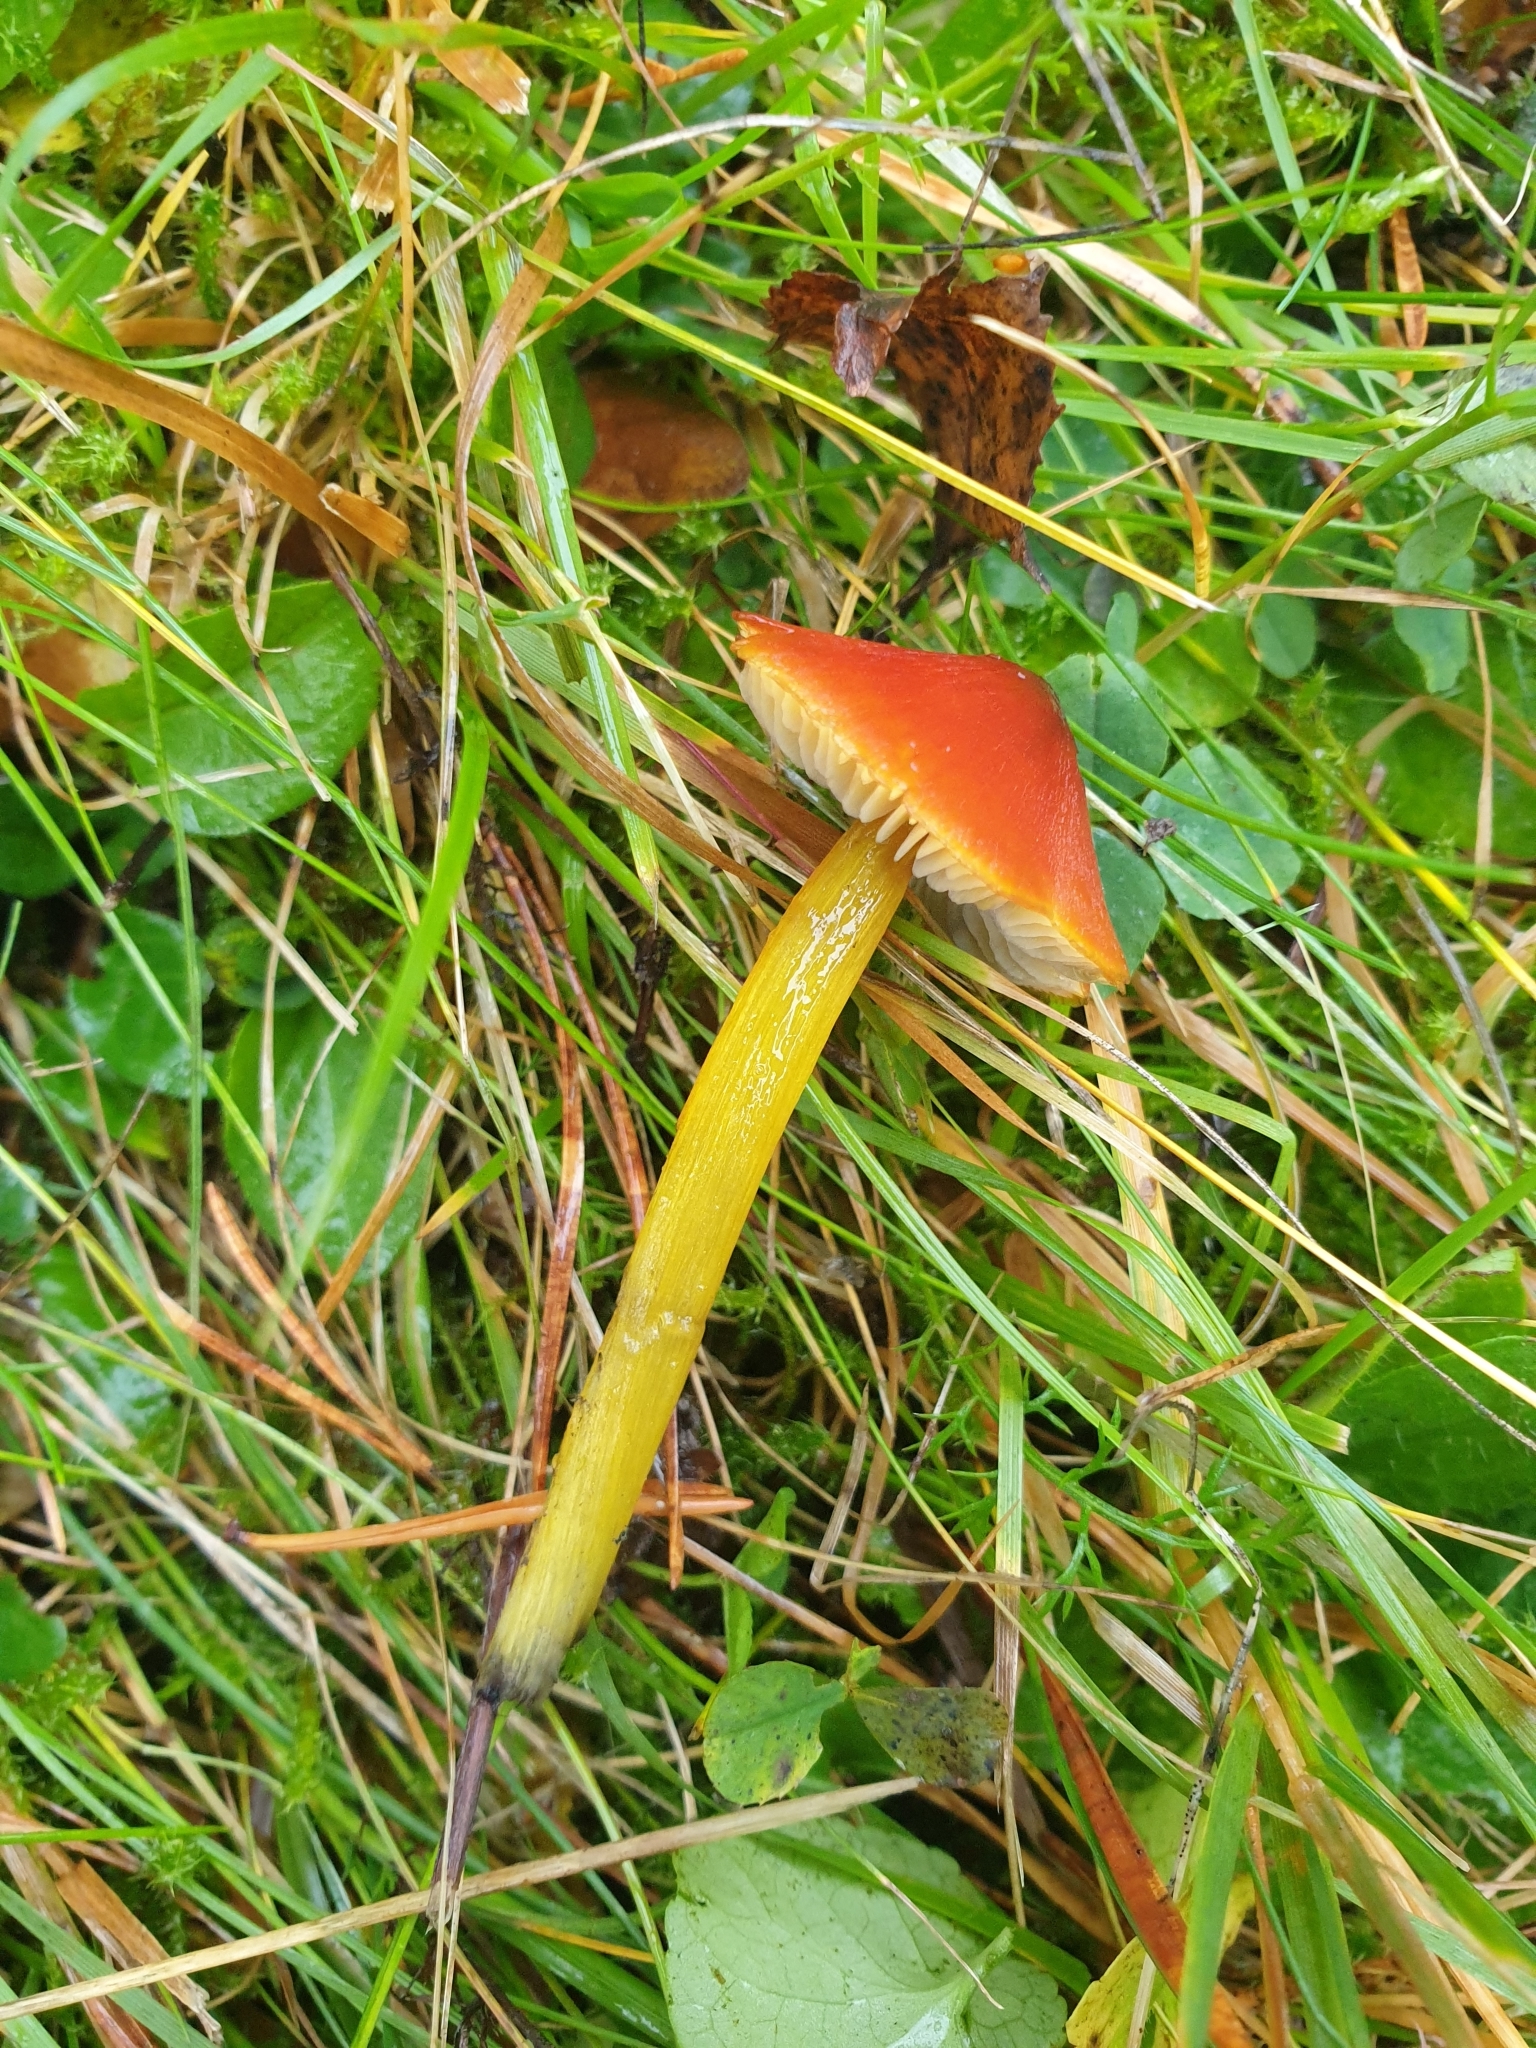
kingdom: Fungi
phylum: Basidiomycota
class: Agaricomycetes
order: Agaricales
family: Hygrophoraceae
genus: Hygrocybe
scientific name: Hygrocybe conica
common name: Blackening wax-cap
